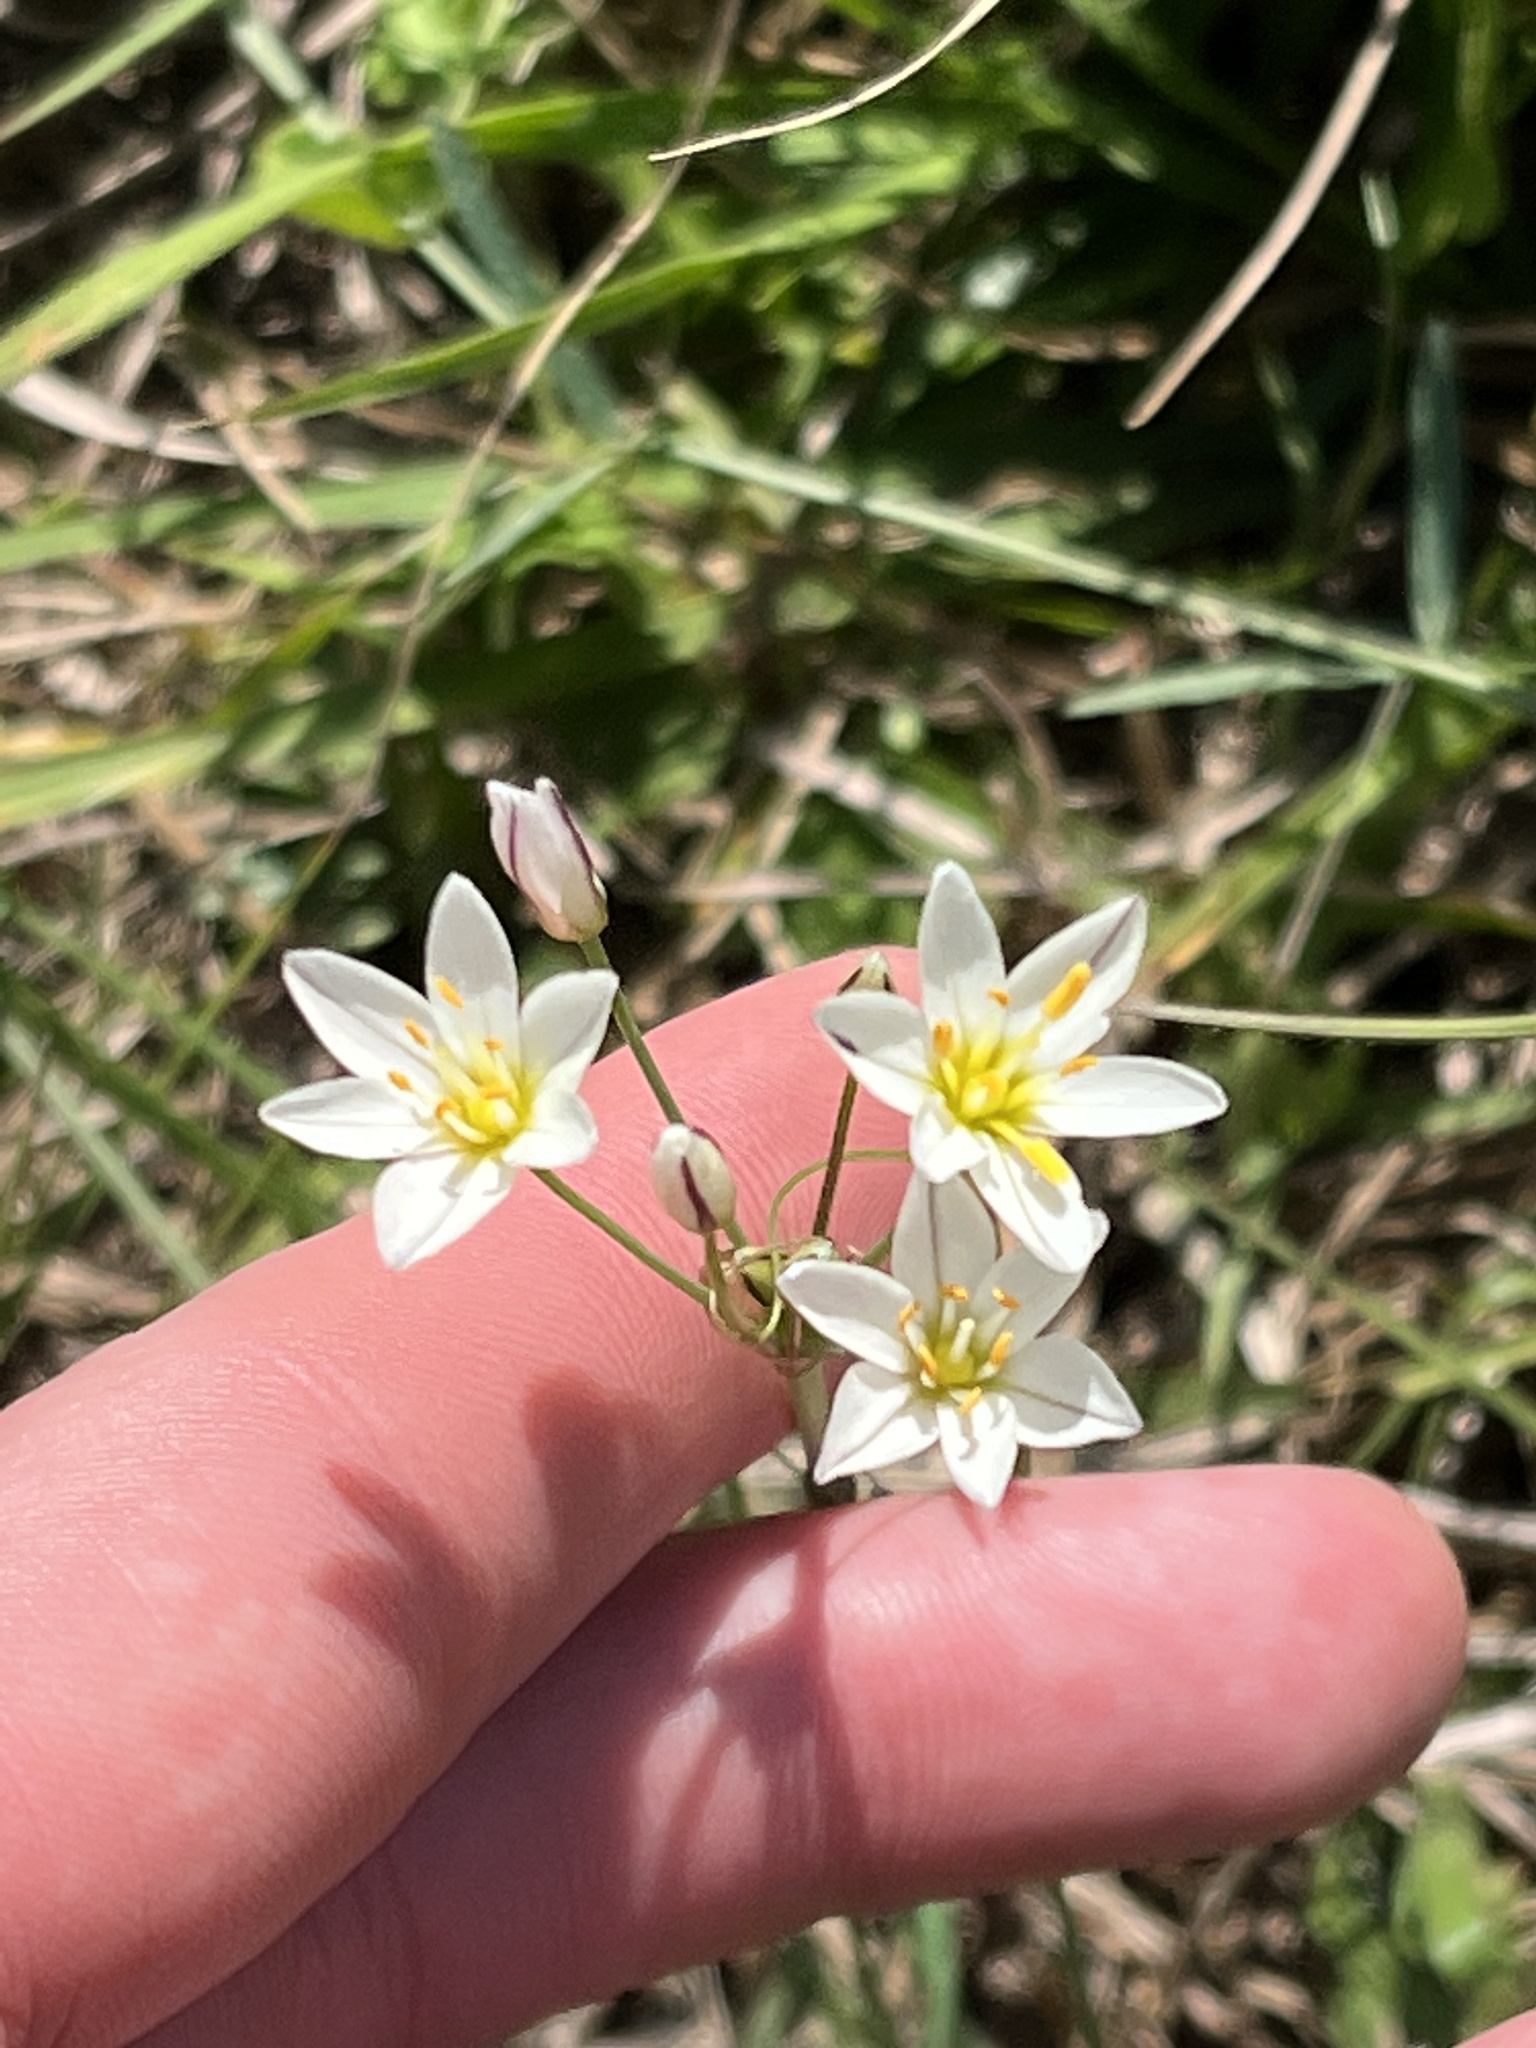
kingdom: Plantae
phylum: Tracheophyta
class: Liliopsida
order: Asparagales
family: Amaryllidaceae
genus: Nothoscordum
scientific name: Nothoscordum bivalve
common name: Crow-poison
